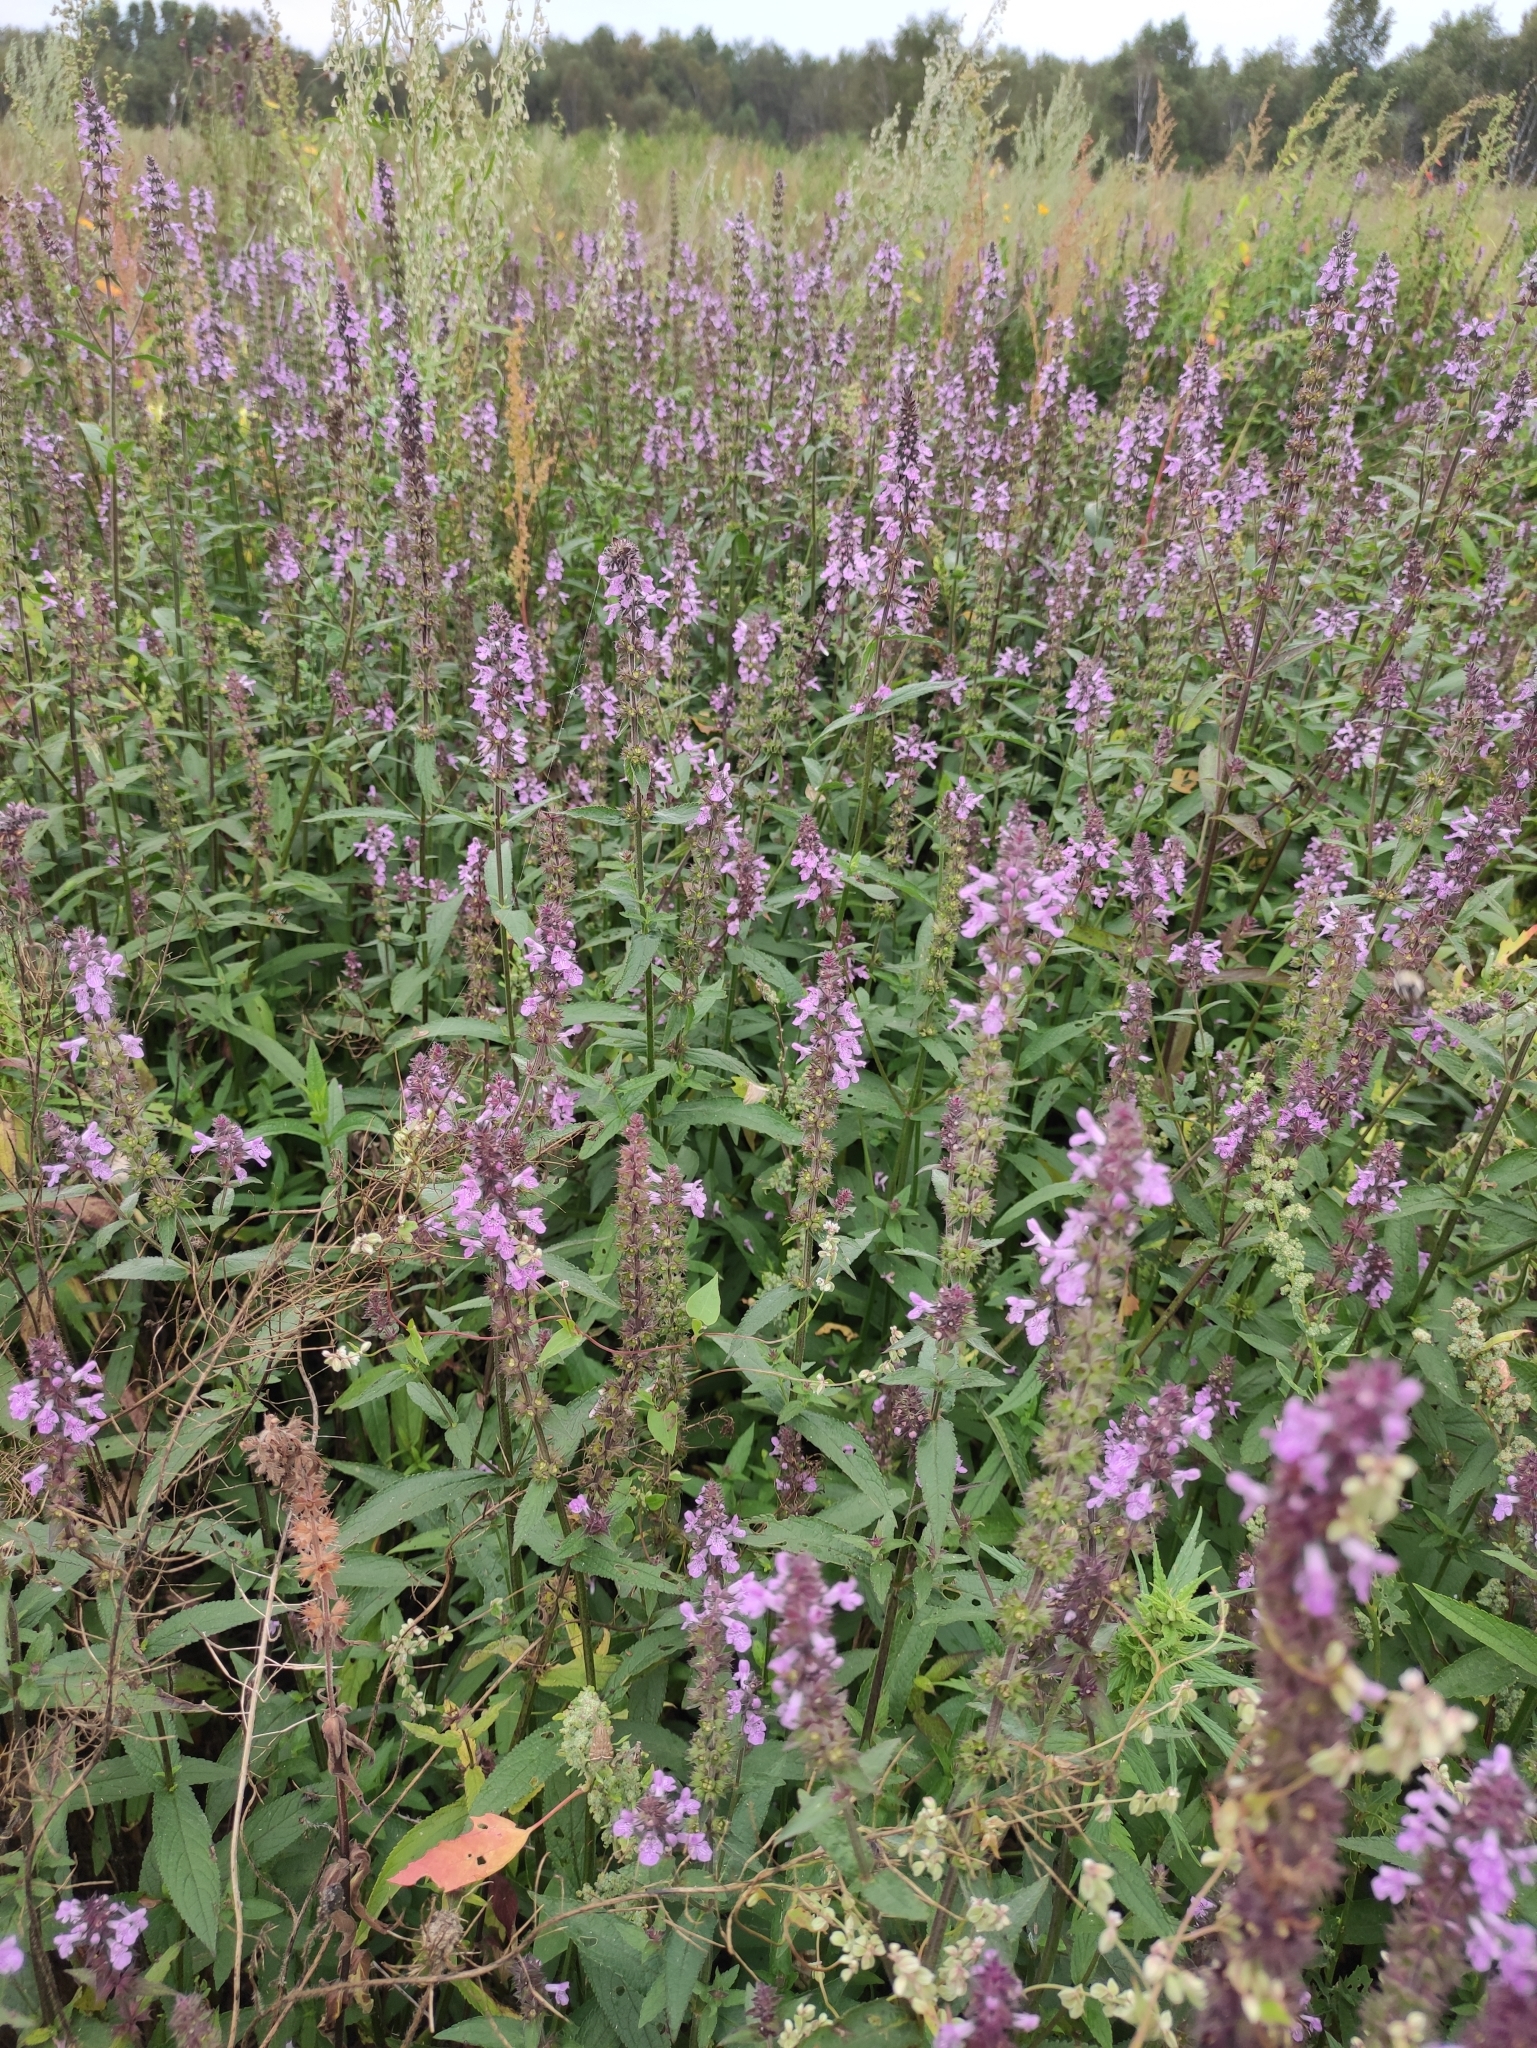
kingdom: Plantae
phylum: Tracheophyta
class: Magnoliopsida
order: Lamiales
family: Lamiaceae
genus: Stachys
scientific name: Stachys palustris
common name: Marsh woundwort
